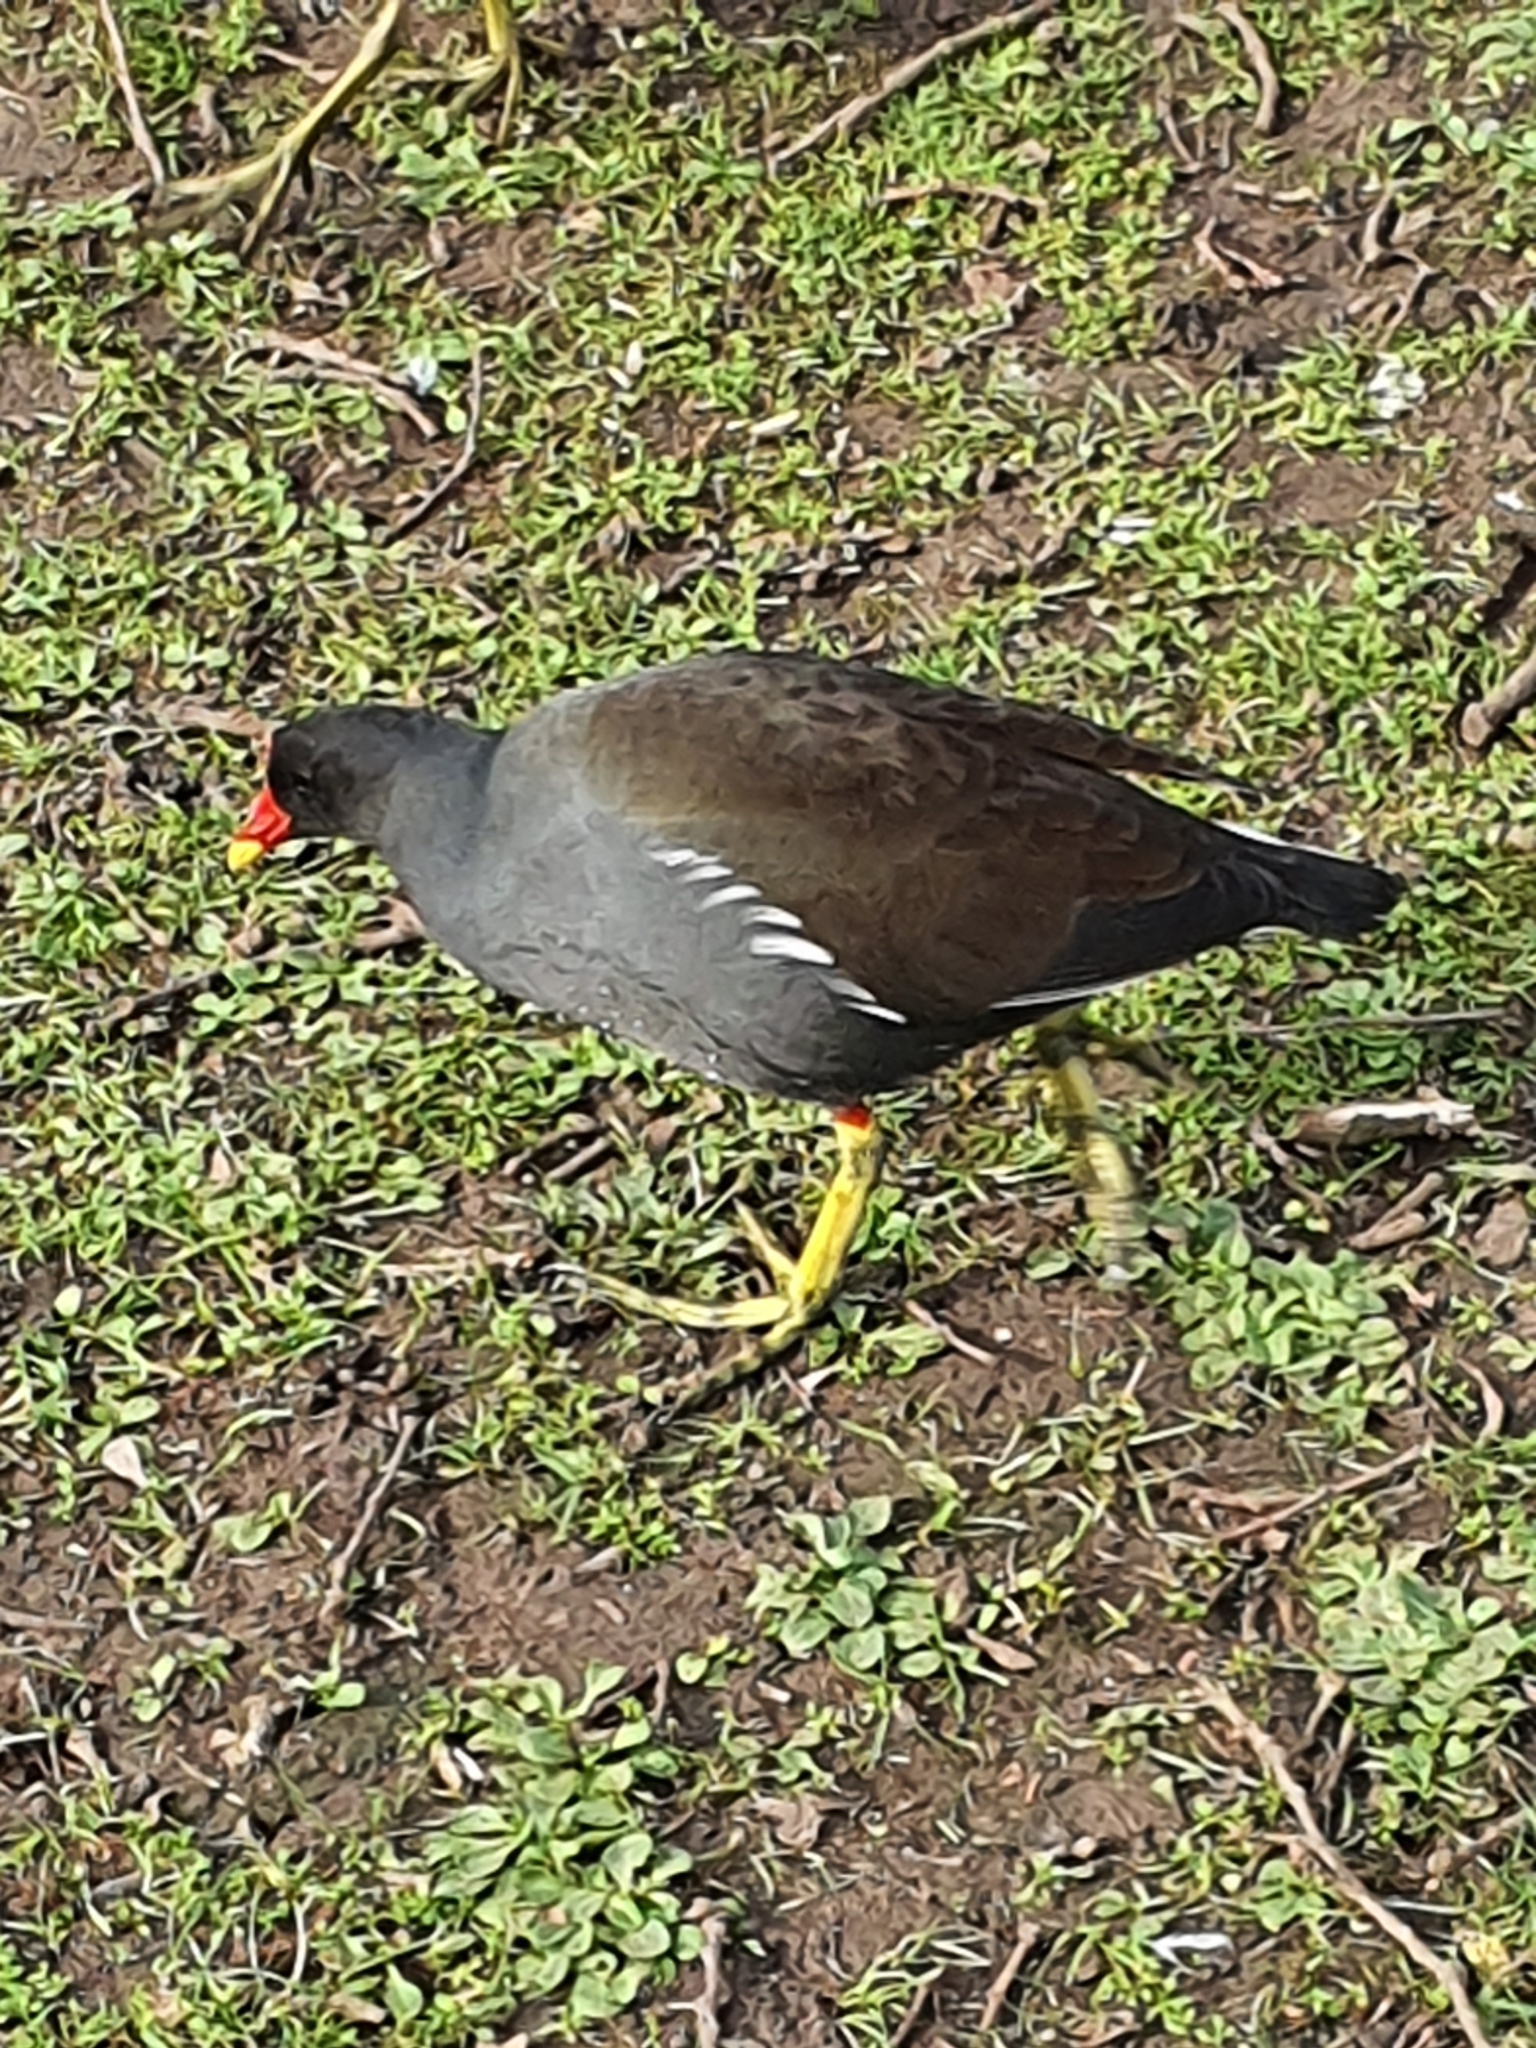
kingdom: Animalia
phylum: Chordata
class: Aves
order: Gruiformes
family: Rallidae
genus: Gallinula
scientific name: Gallinula chloropus
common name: Common moorhen
